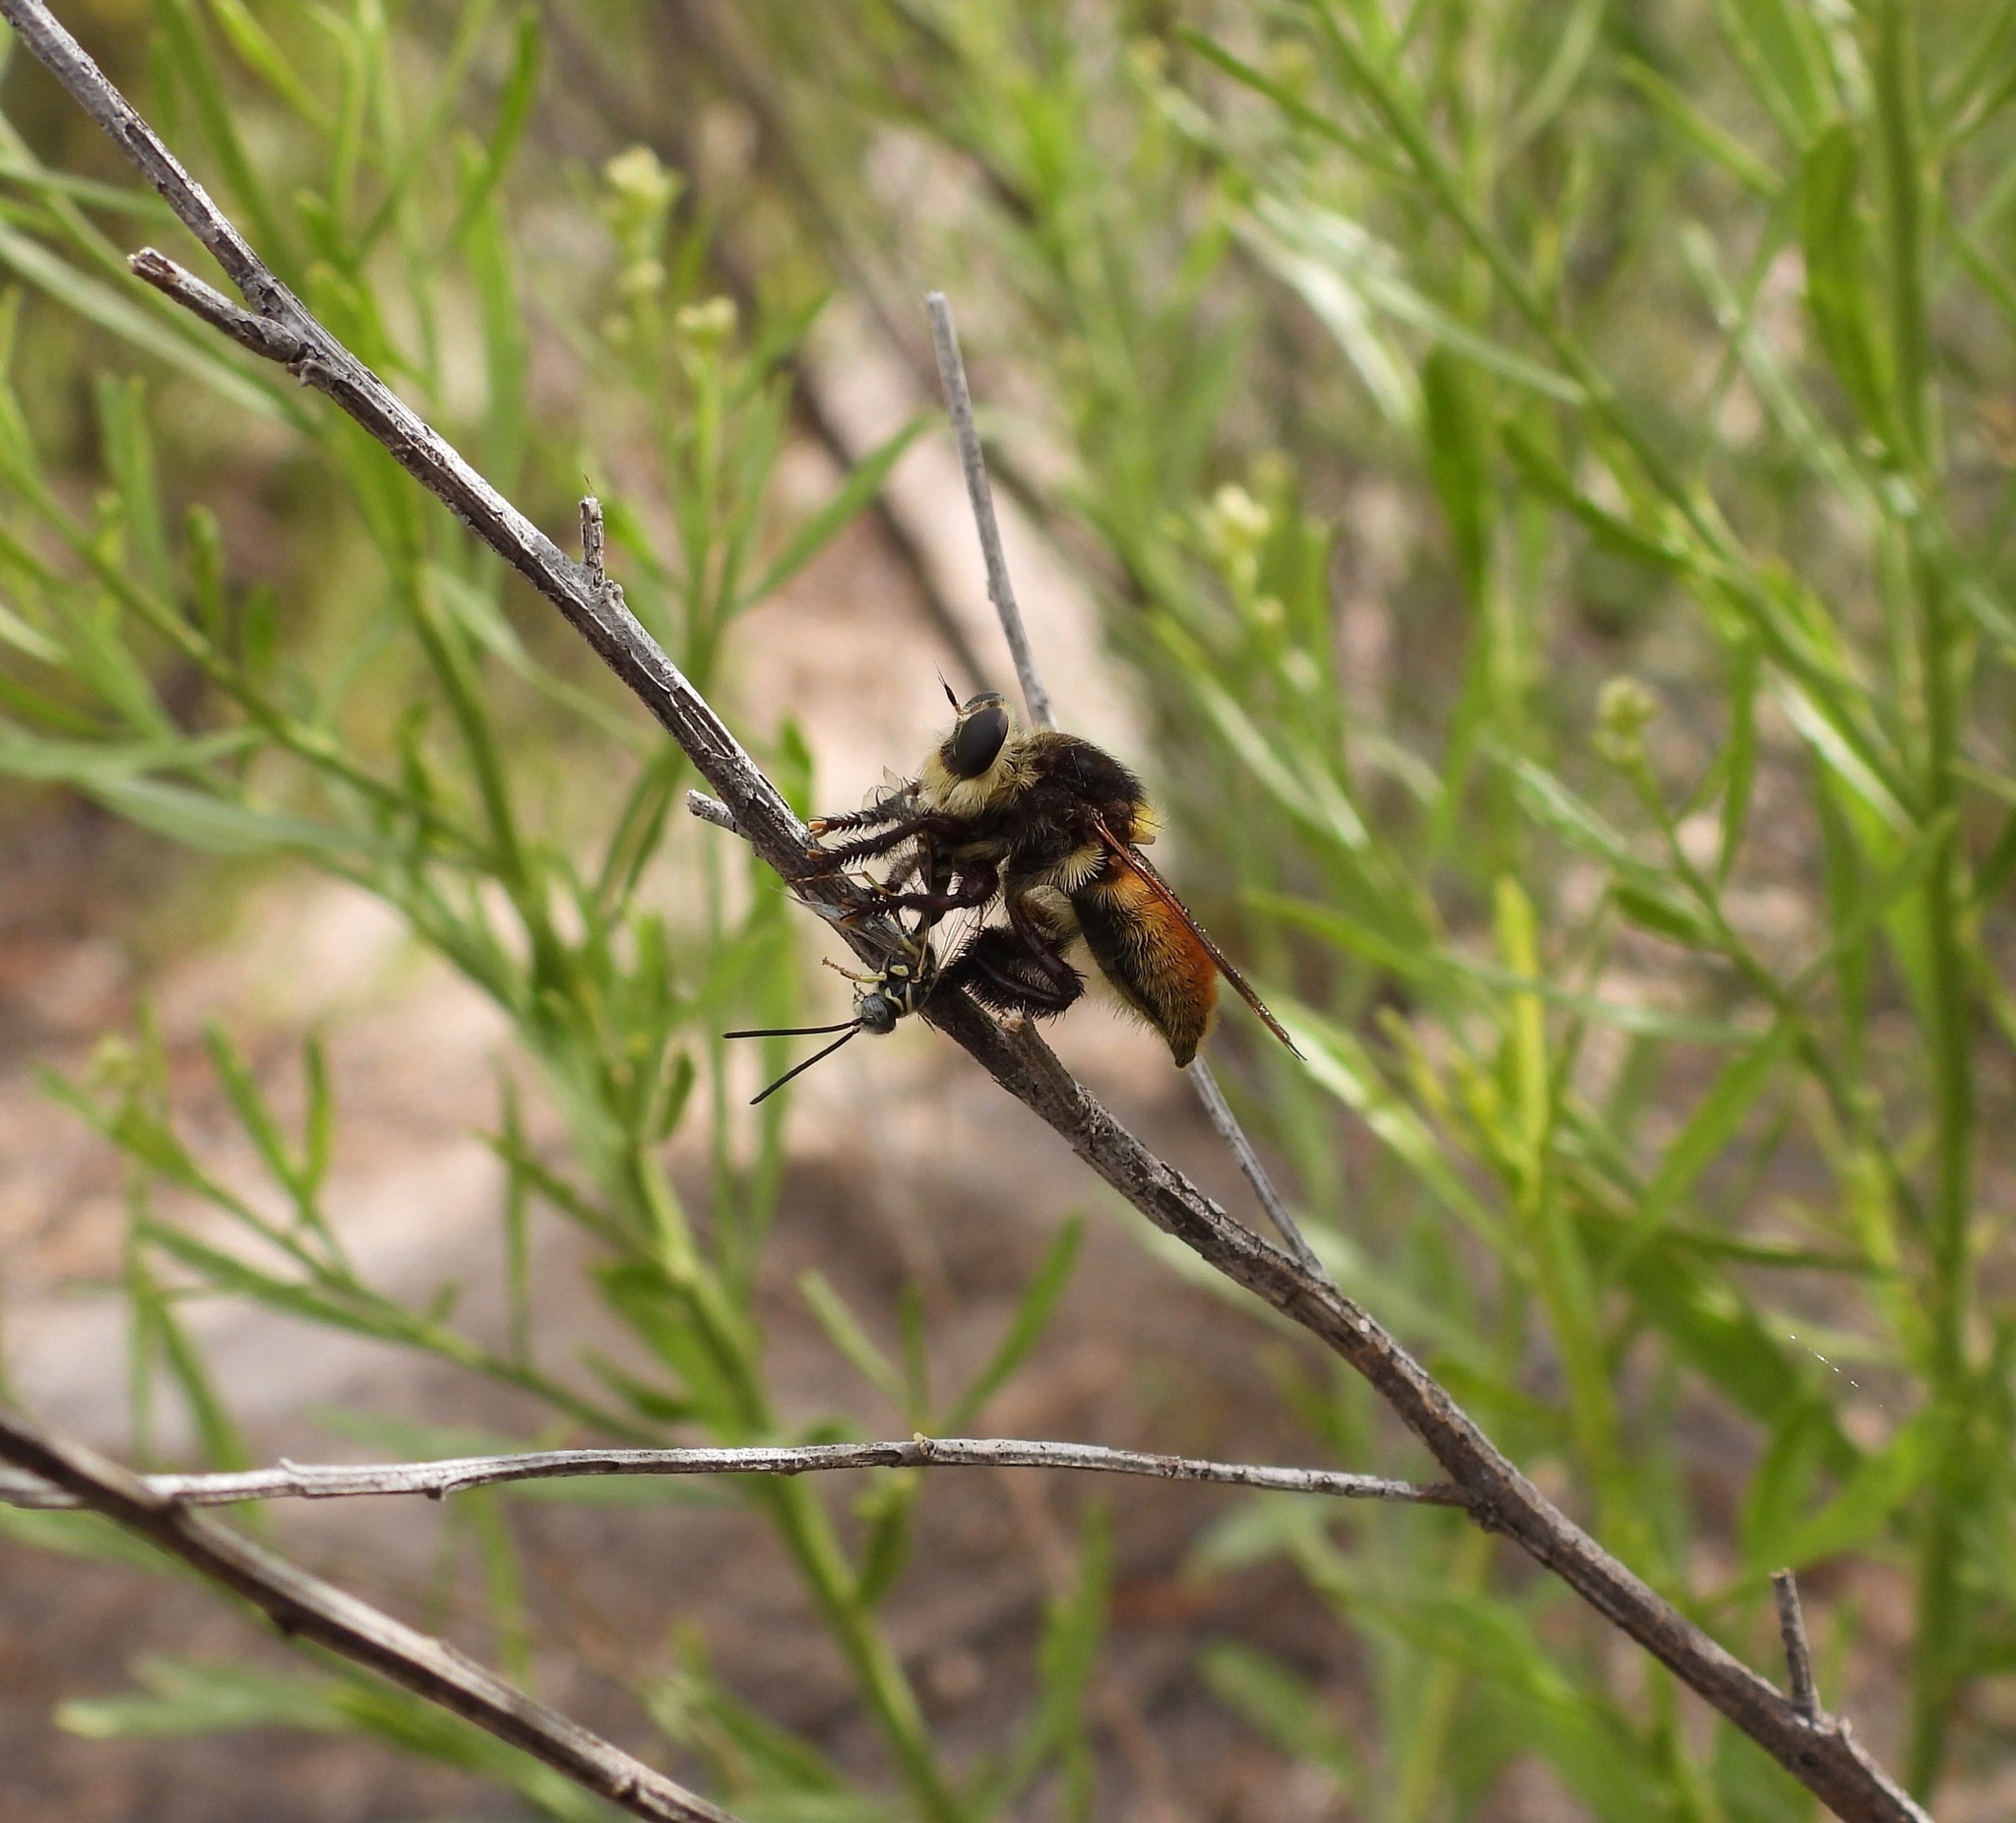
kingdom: Animalia
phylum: Arthropoda
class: Insecta
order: Diptera
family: Asilidae
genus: Mallophora
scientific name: Mallophora fautrix
